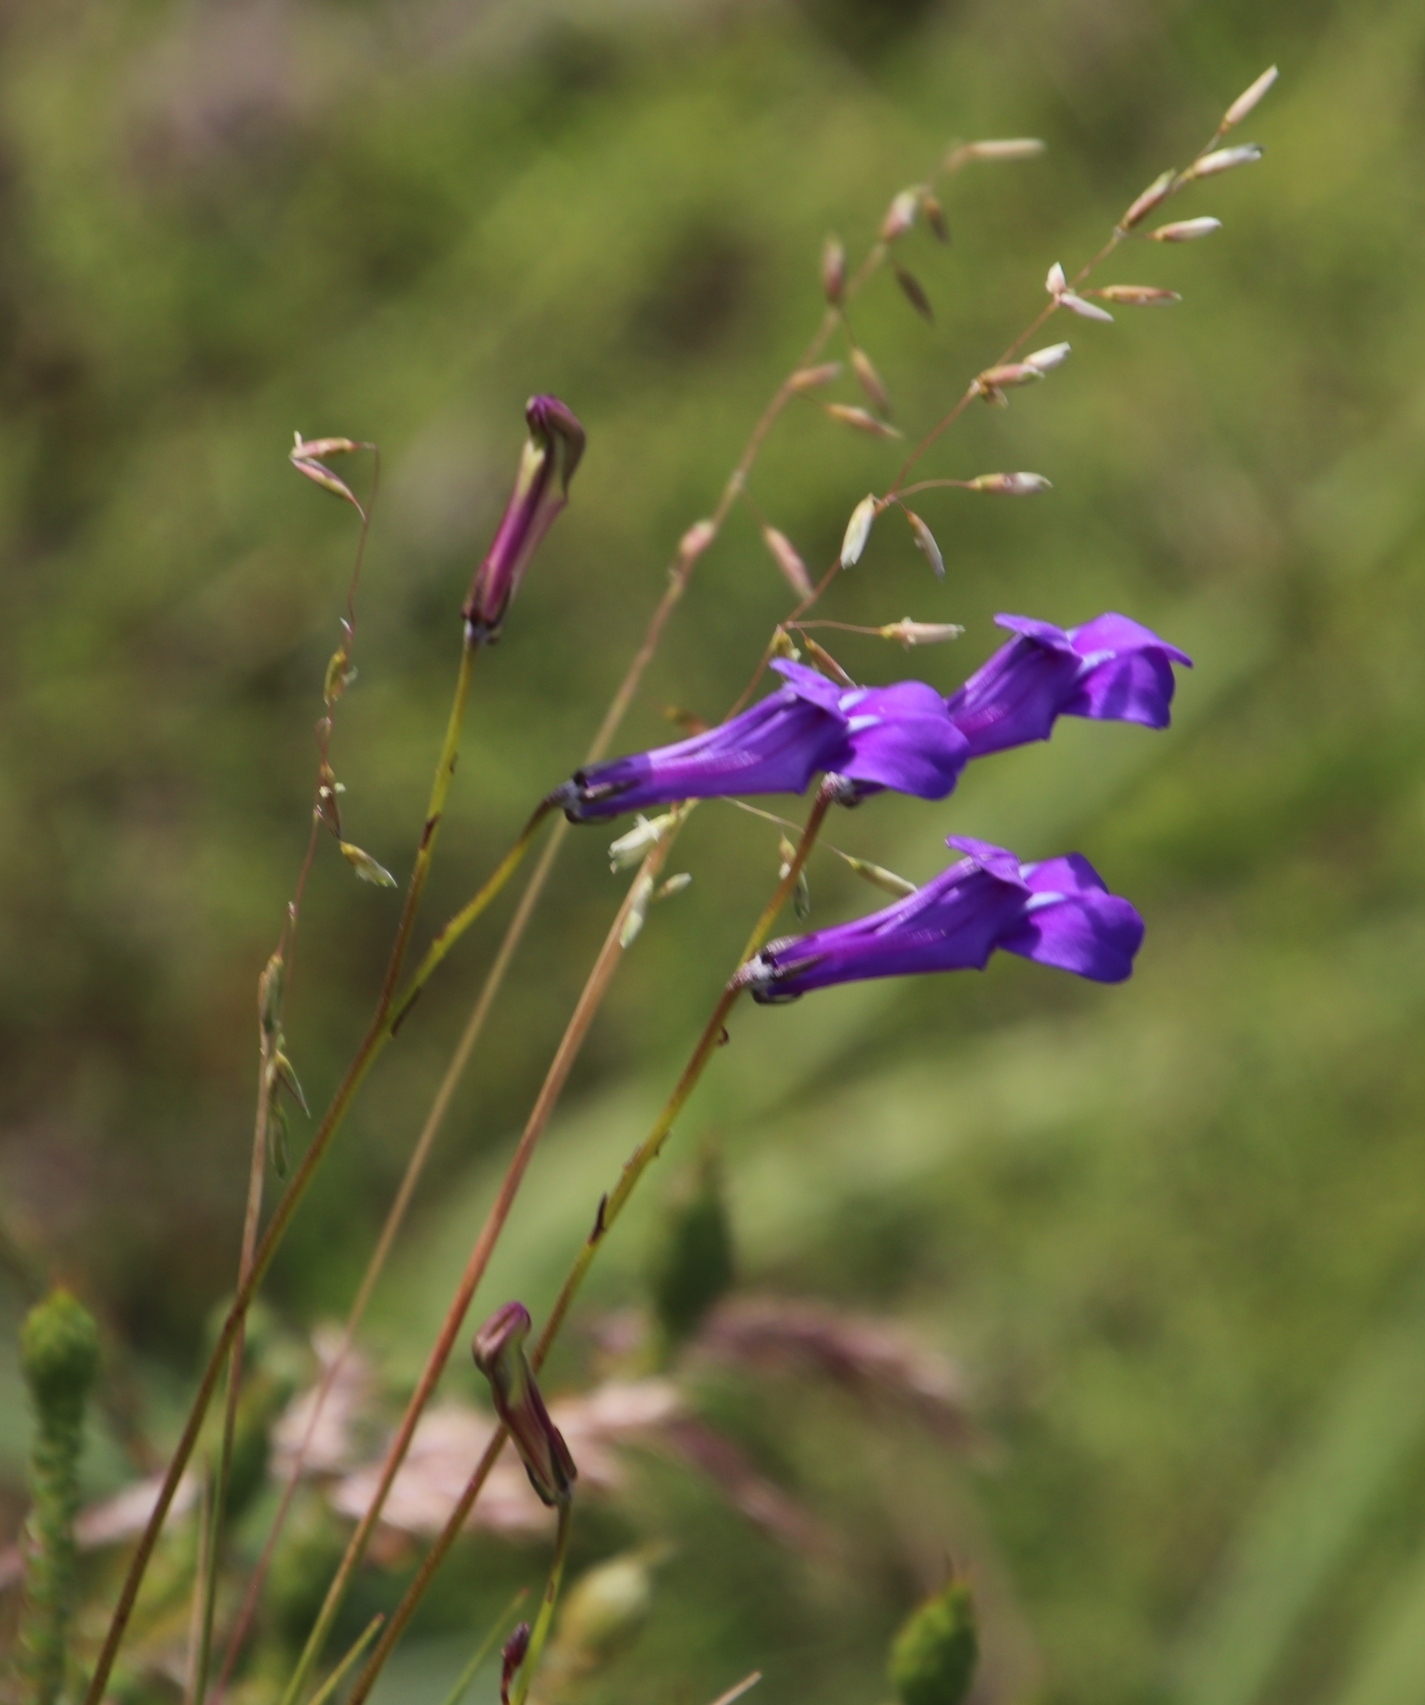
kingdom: Plantae
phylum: Tracheophyta
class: Magnoliopsida
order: Asterales
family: Campanulaceae
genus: Lobelia
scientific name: Lobelia coronopifolia
